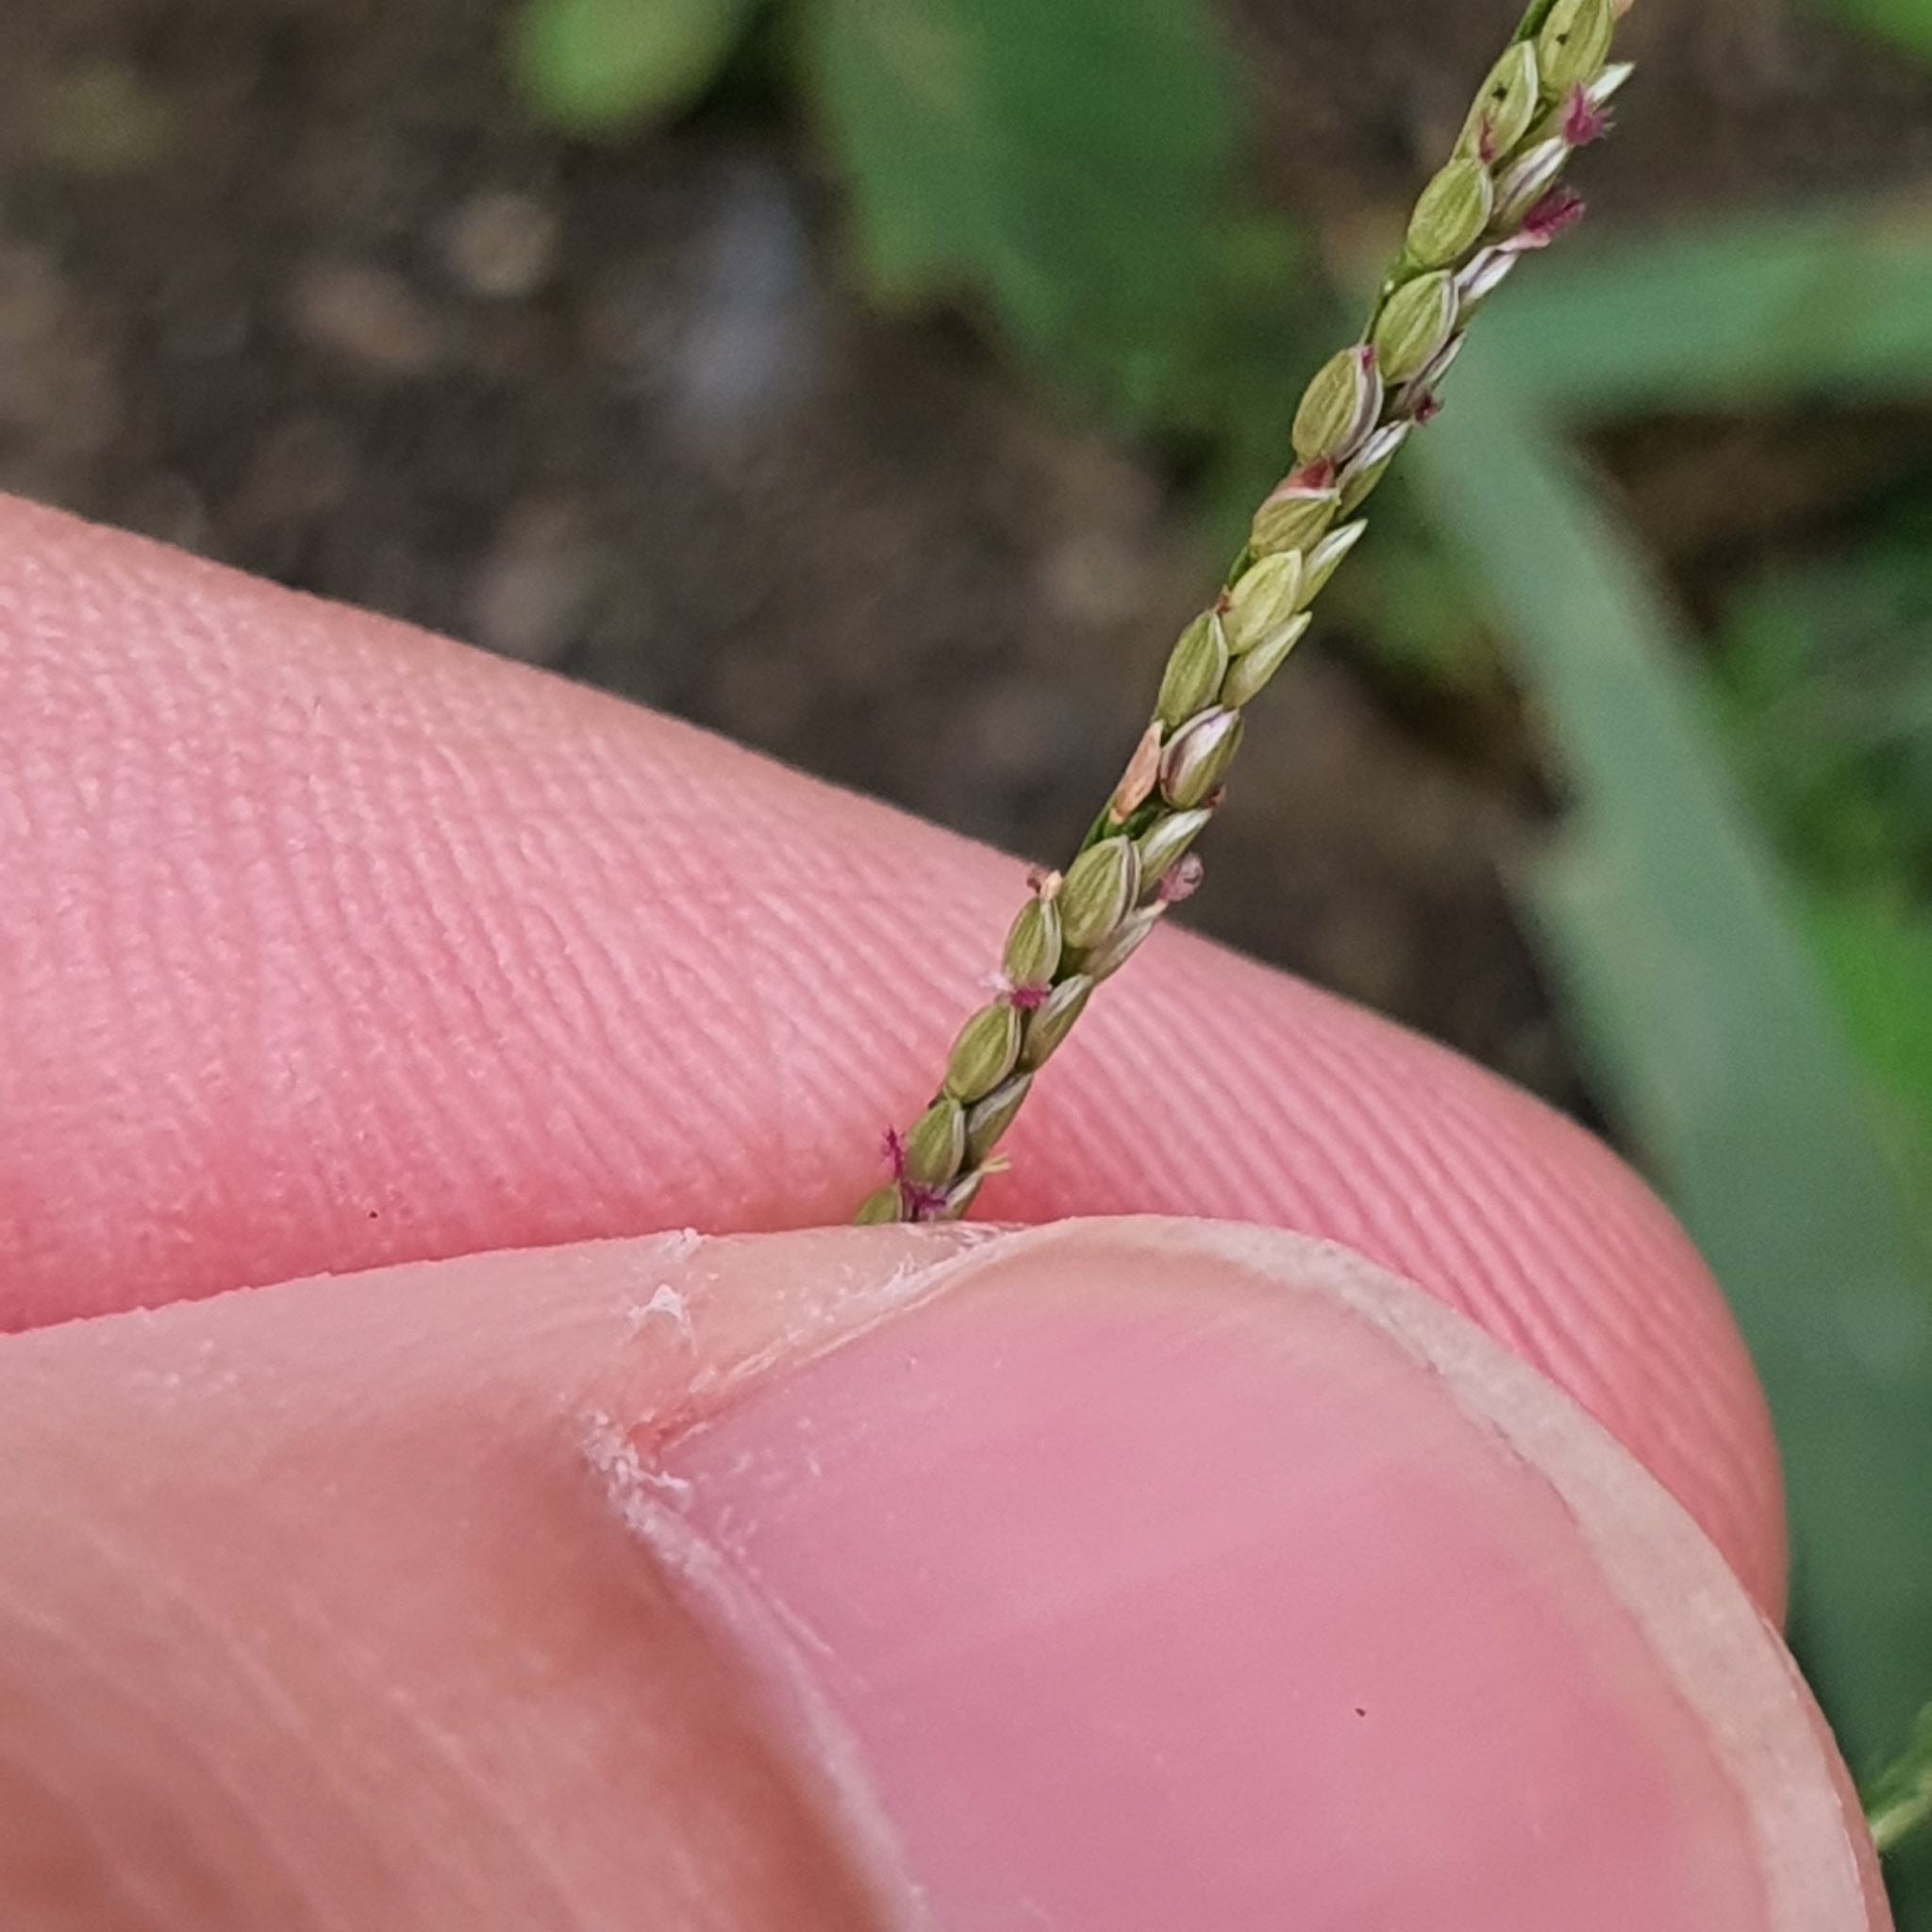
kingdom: Plantae
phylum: Tracheophyta
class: Liliopsida
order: Poales
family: Poaceae
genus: Digitaria
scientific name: Digitaria violascens
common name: Violet crabgrass
